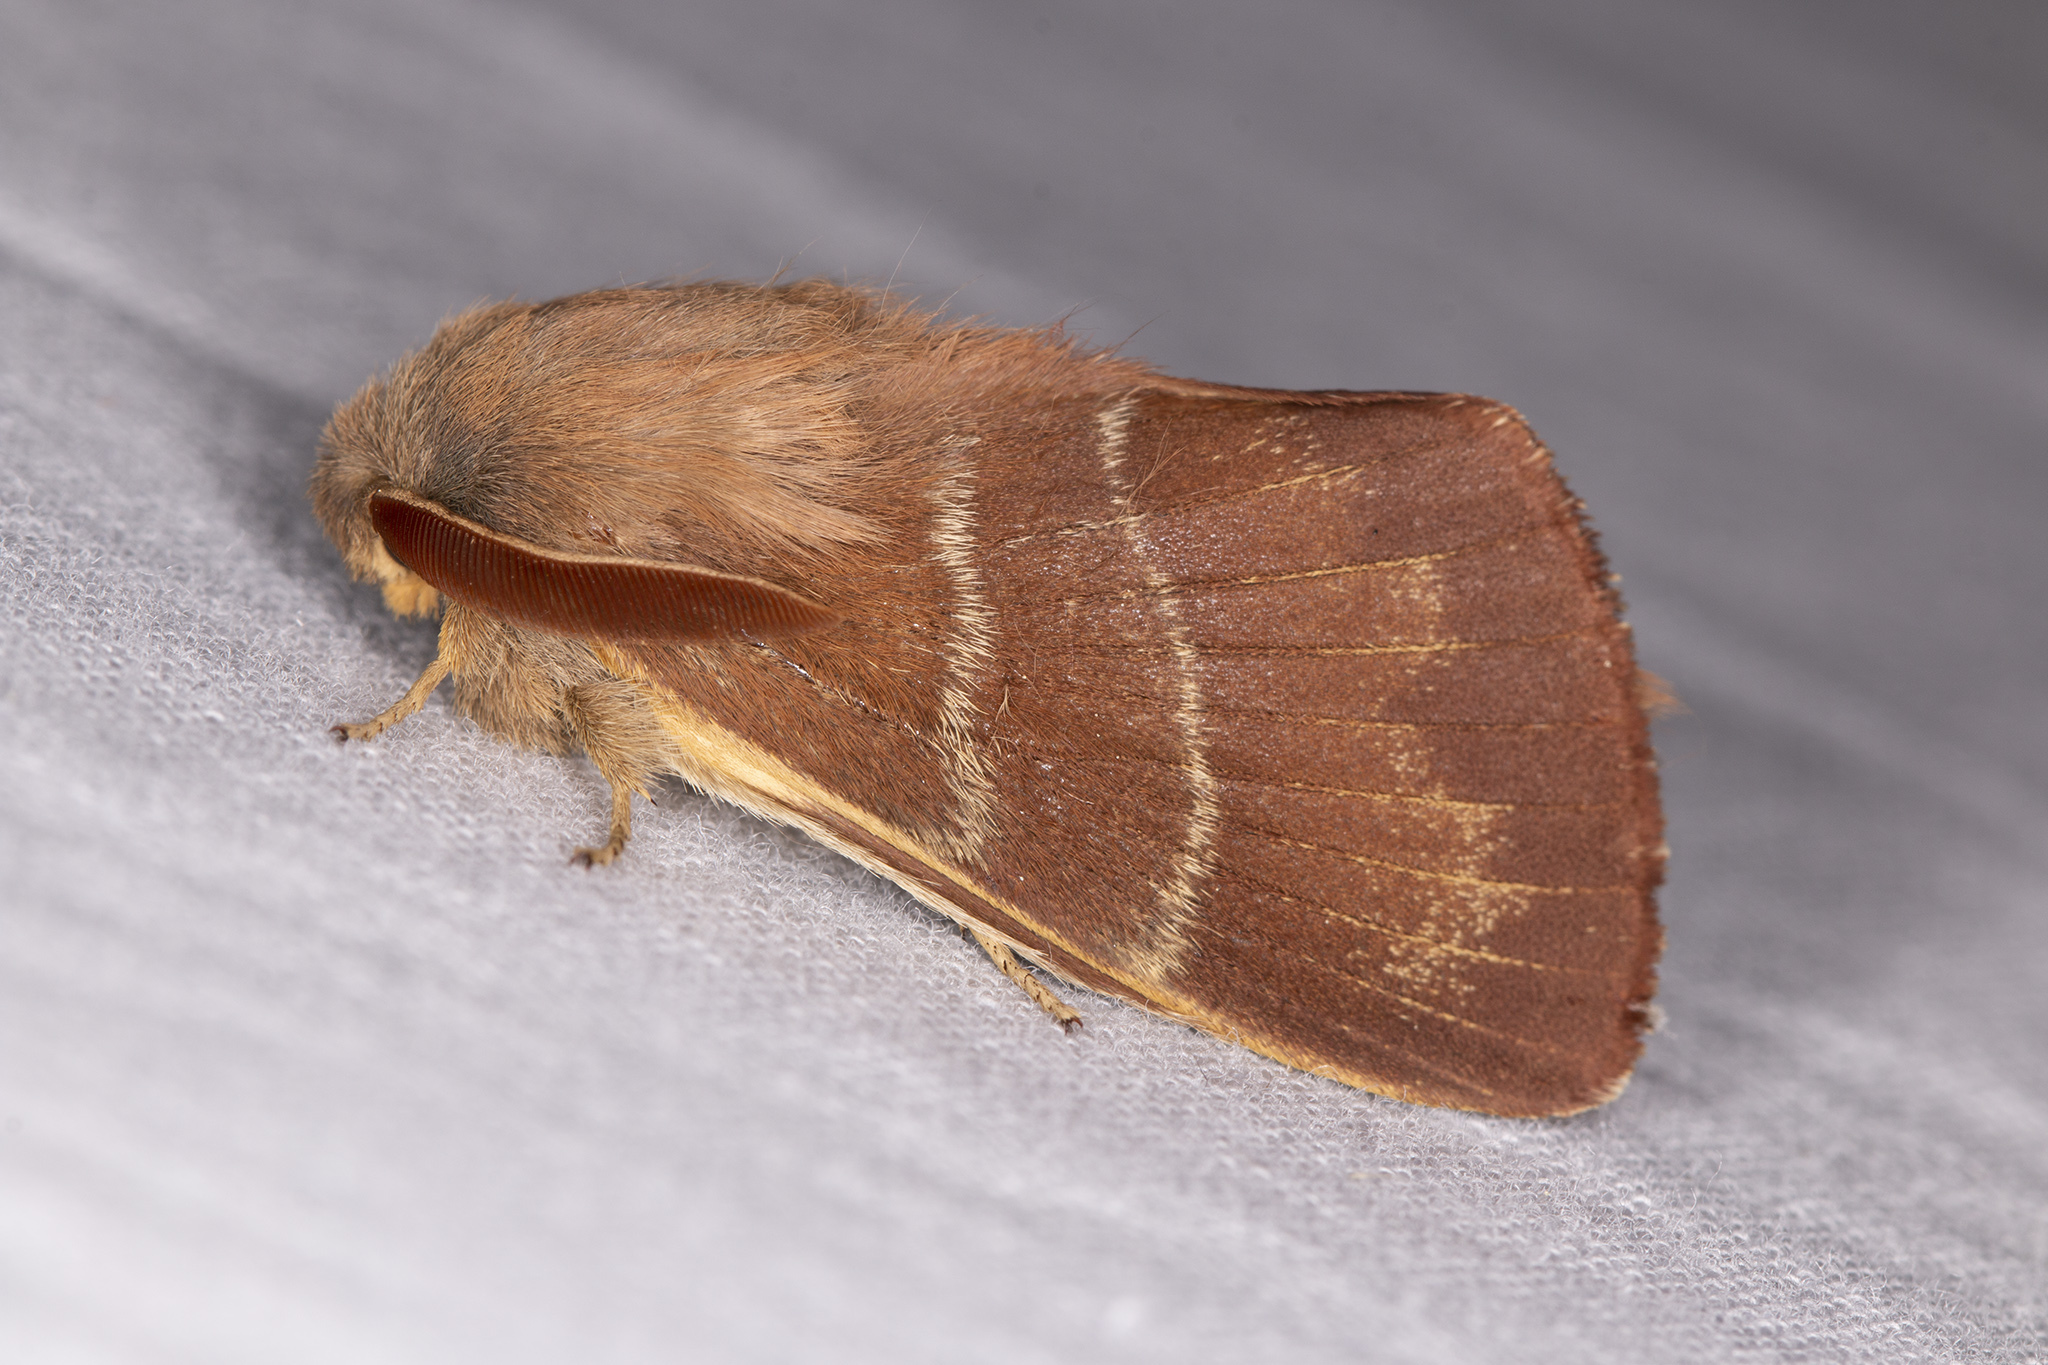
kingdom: Animalia
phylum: Arthropoda
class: Insecta
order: Lepidoptera
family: Lasiocampidae
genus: Macrothylacia
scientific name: Macrothylacia rubi
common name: Fox moth
